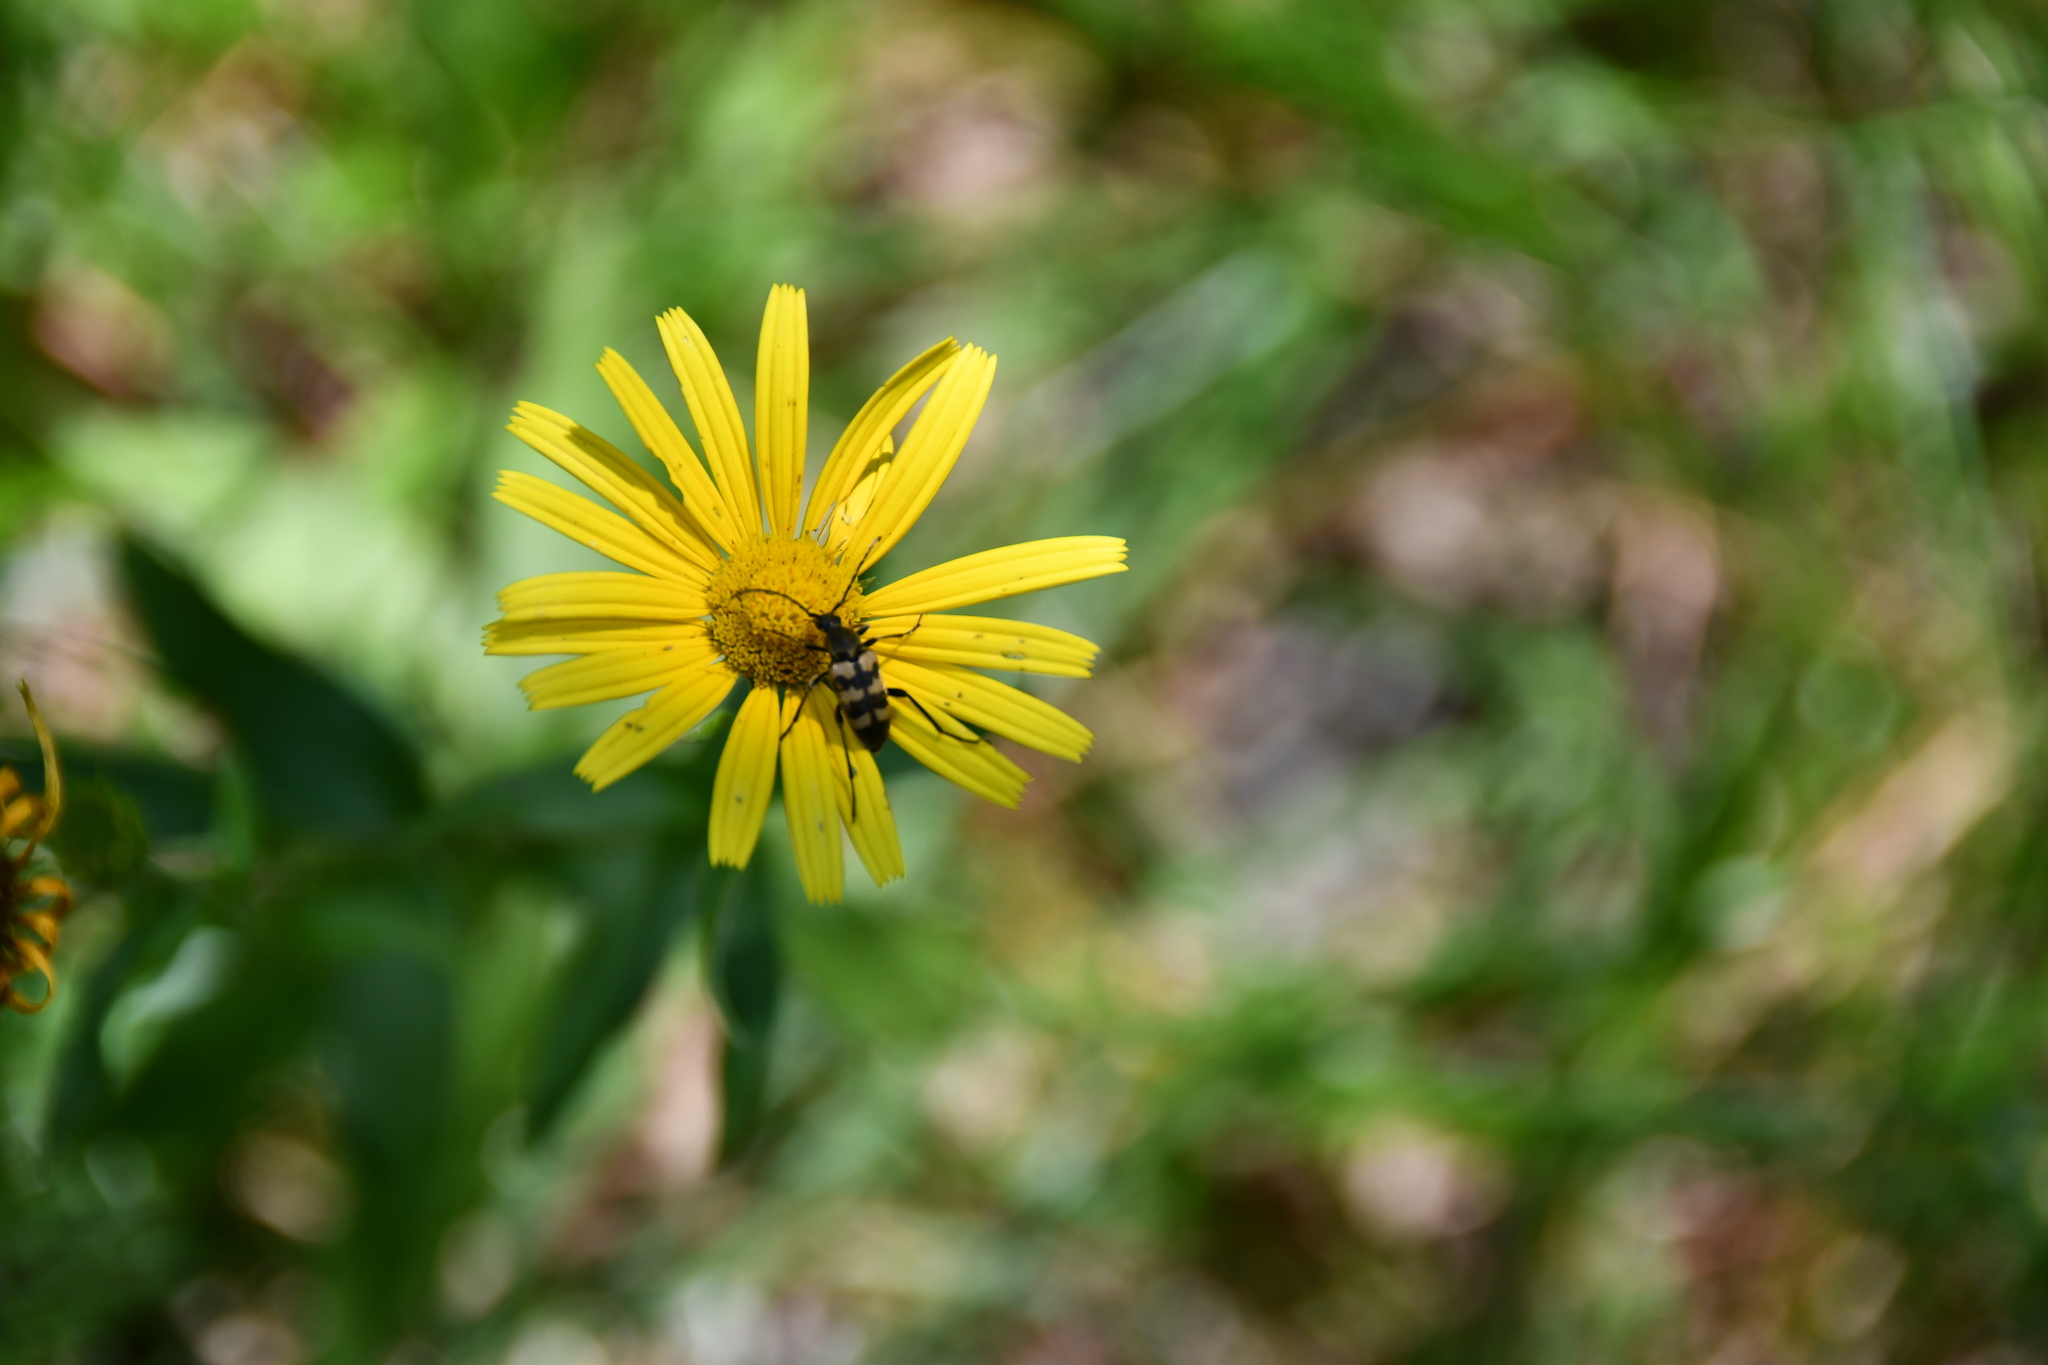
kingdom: Animalia
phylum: Arthropoda
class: Insecta
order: Coleoptera
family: Cerambycidae
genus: Pachytodes
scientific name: Pachytodes
